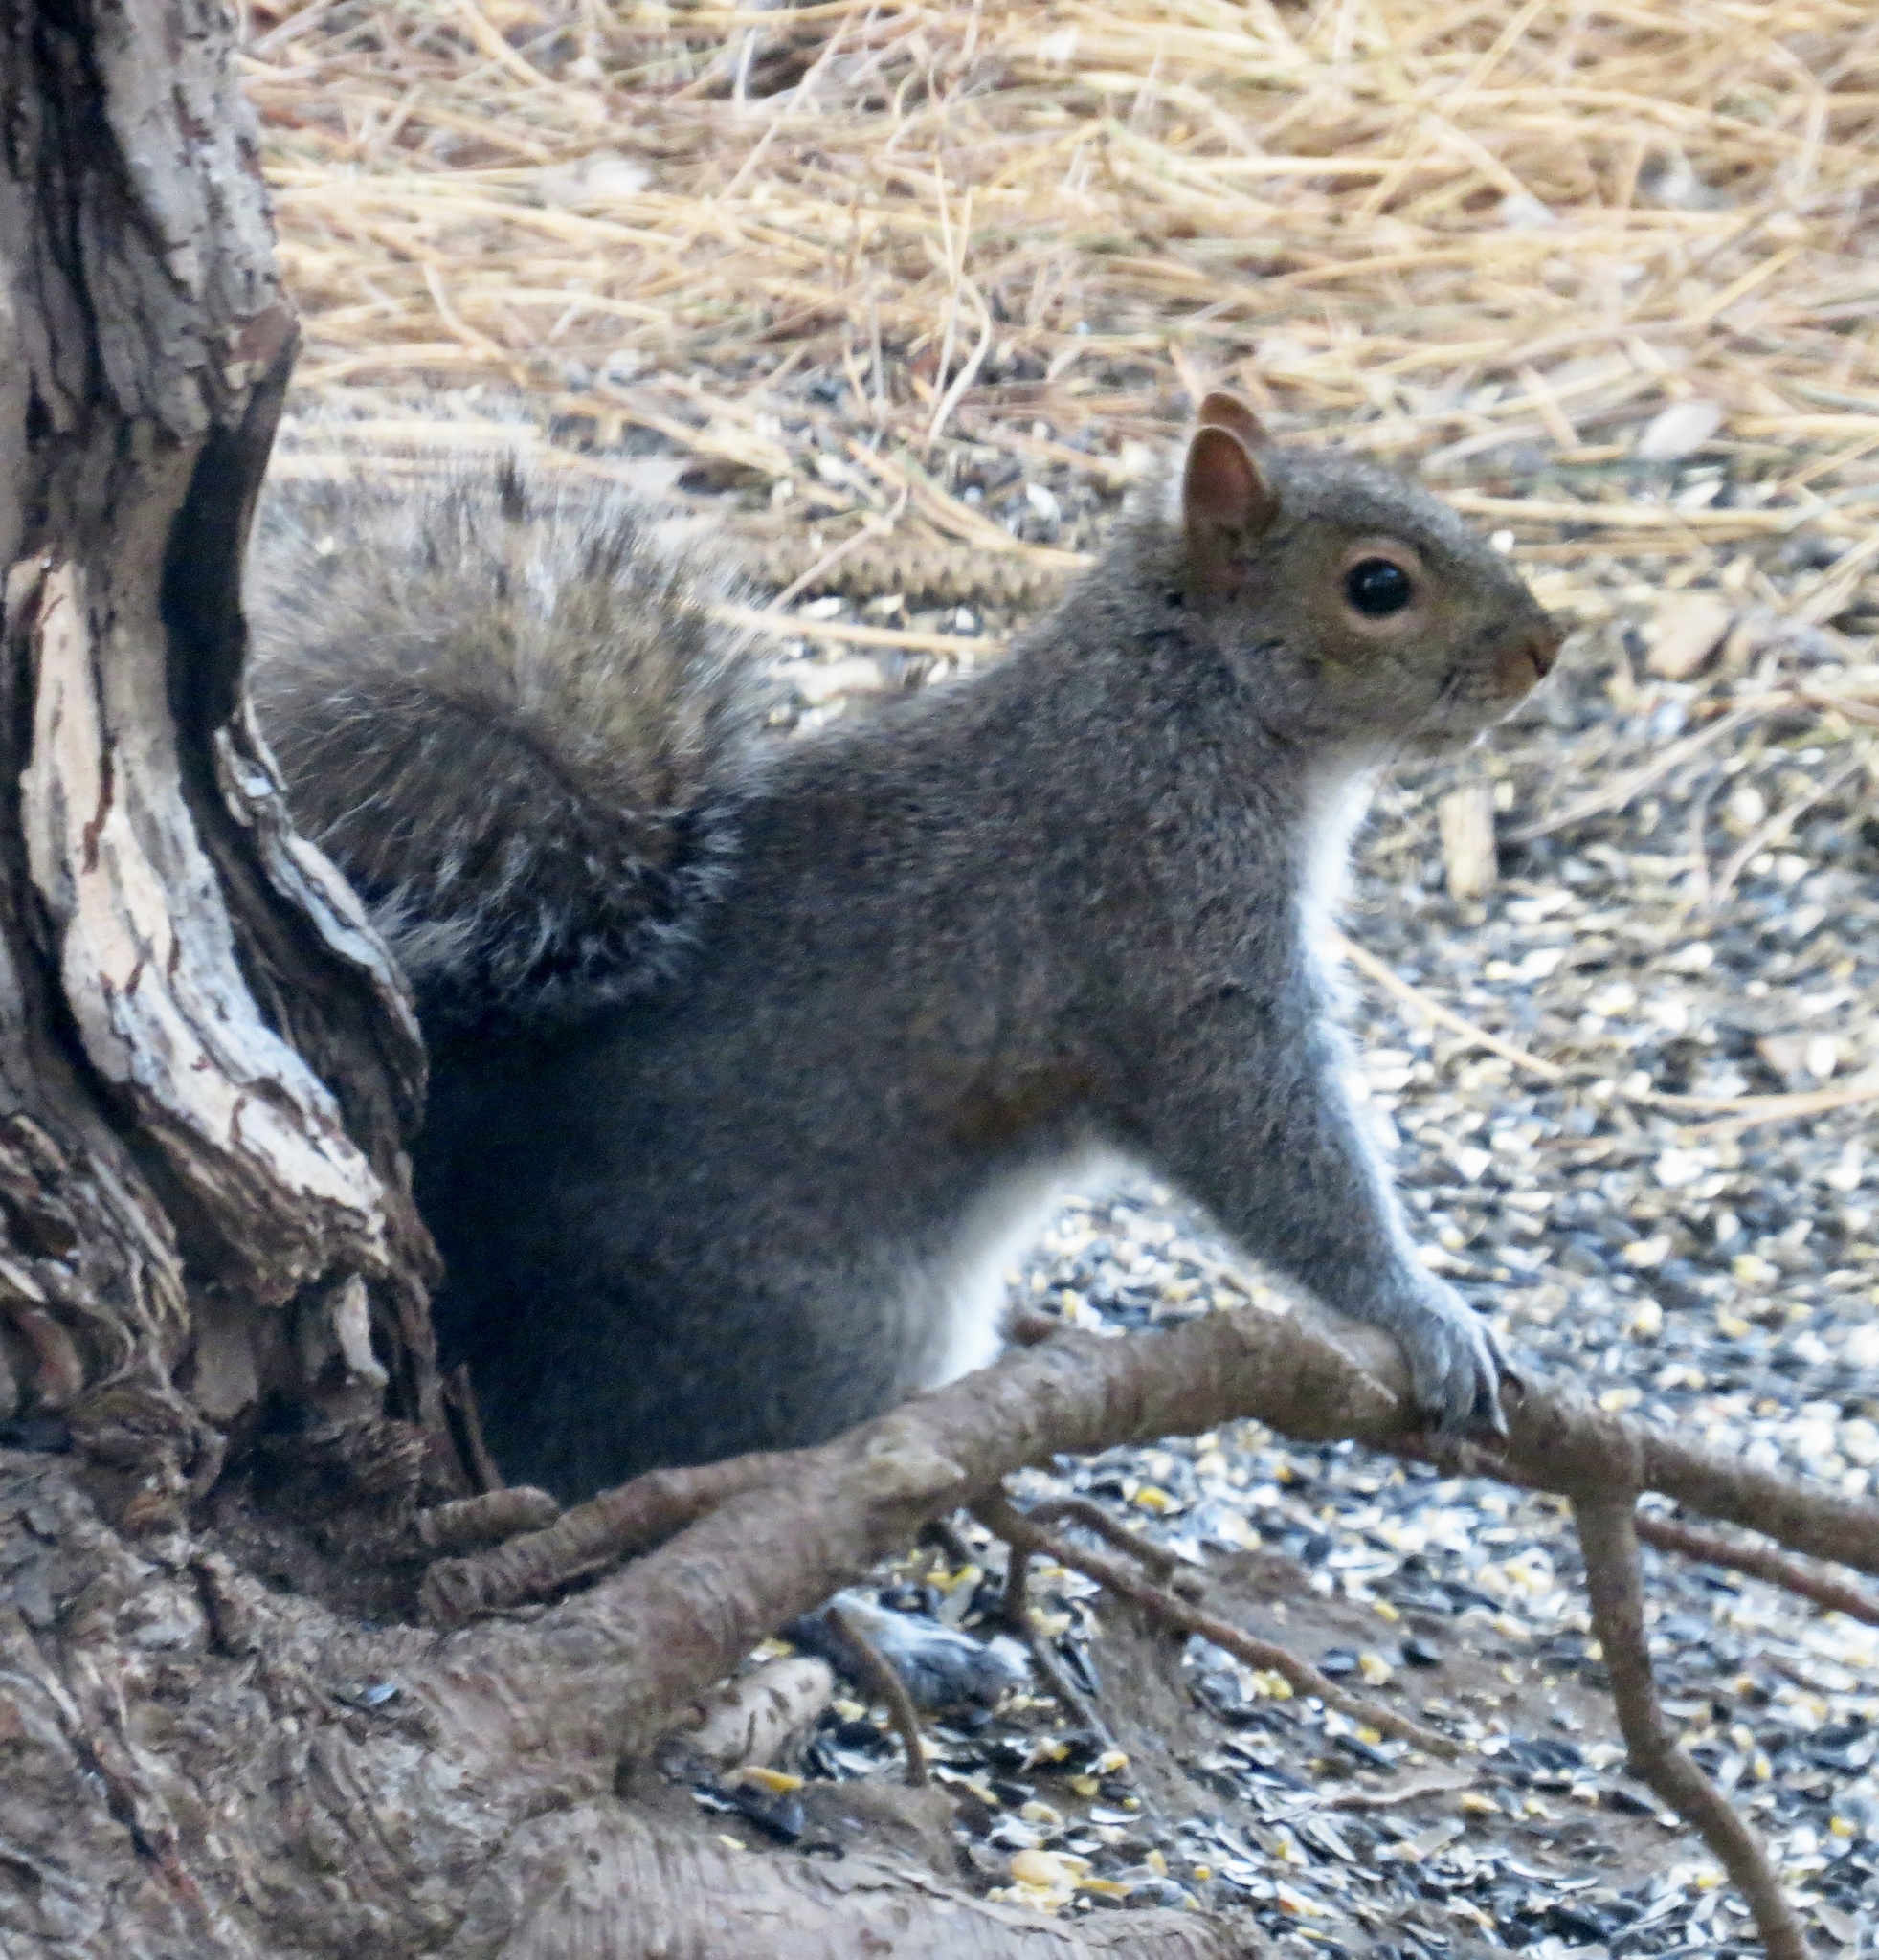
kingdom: Animalia
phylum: Chordata
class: Mammalia
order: Rodentia
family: Sciuridae
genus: Sciurus
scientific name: Sciurus carolinensis
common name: Eastern gray squirrel
